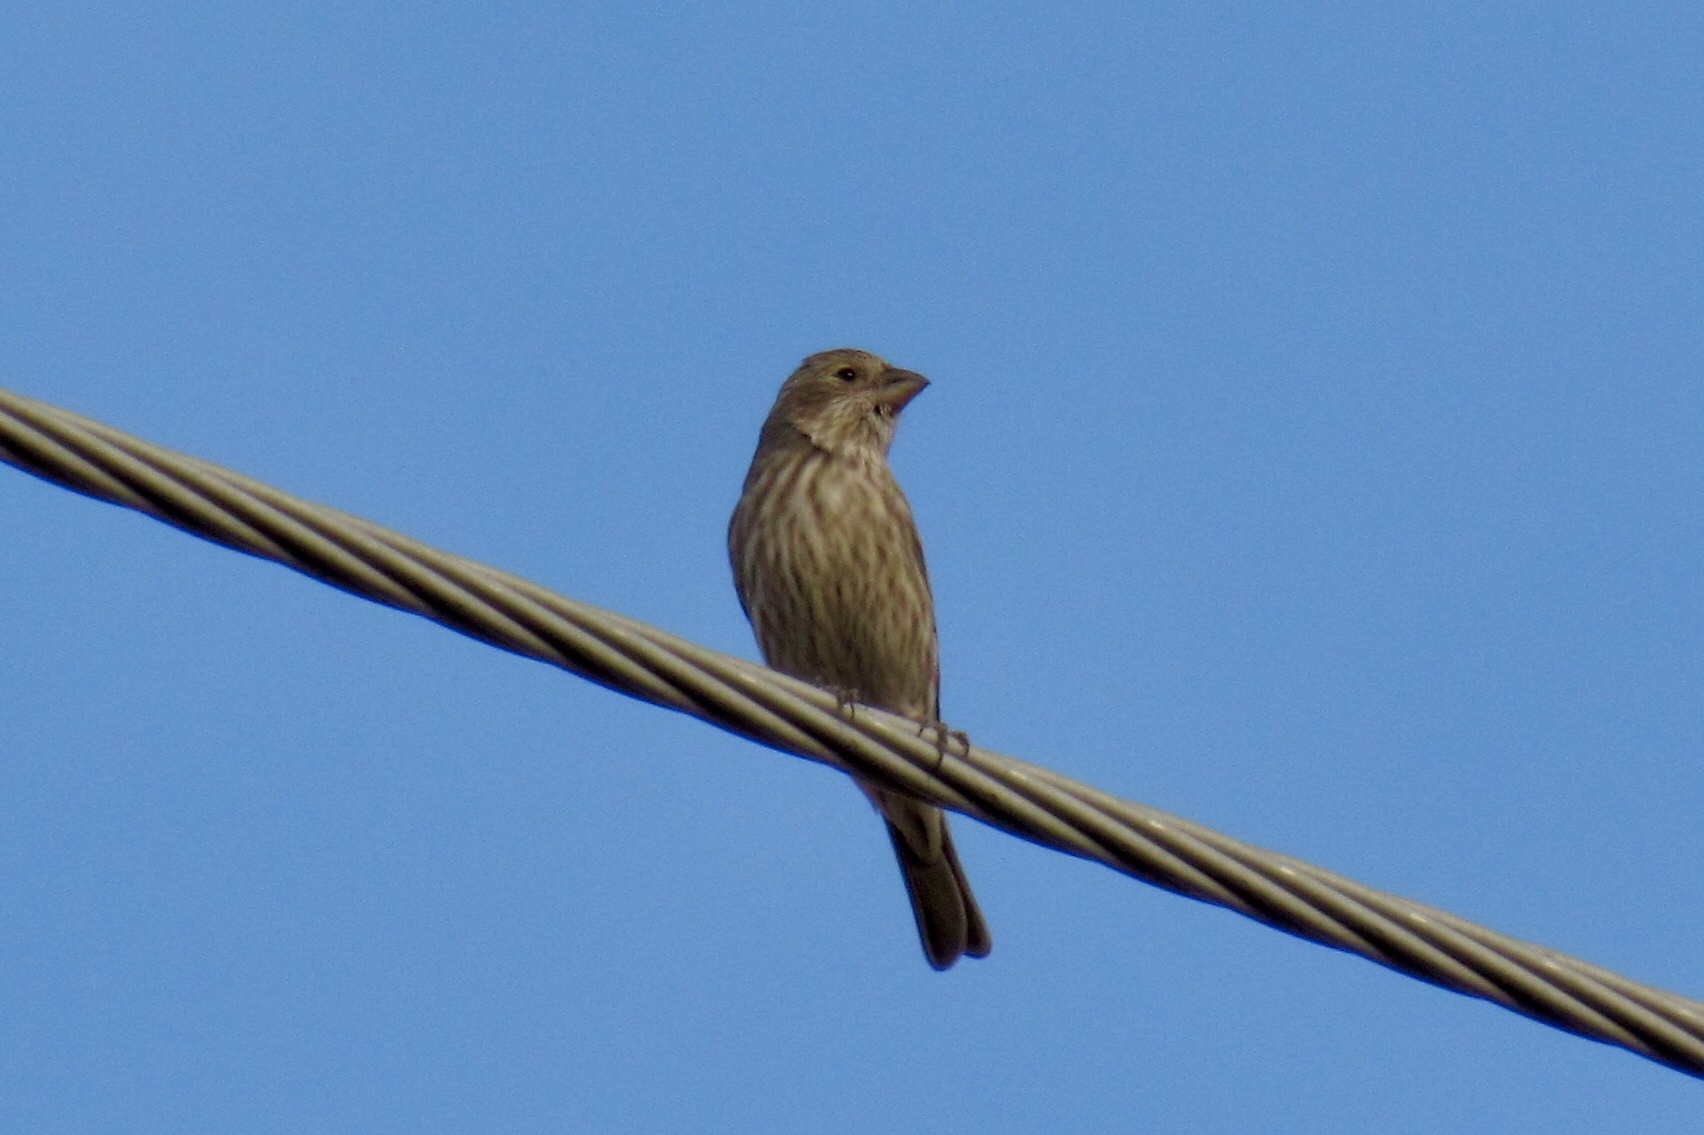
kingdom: Animalia
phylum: Chordata
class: Aves
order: Passeriformes
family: Fringillidae
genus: Haemorhous
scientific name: Haemorhous mexicanus
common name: House finch
